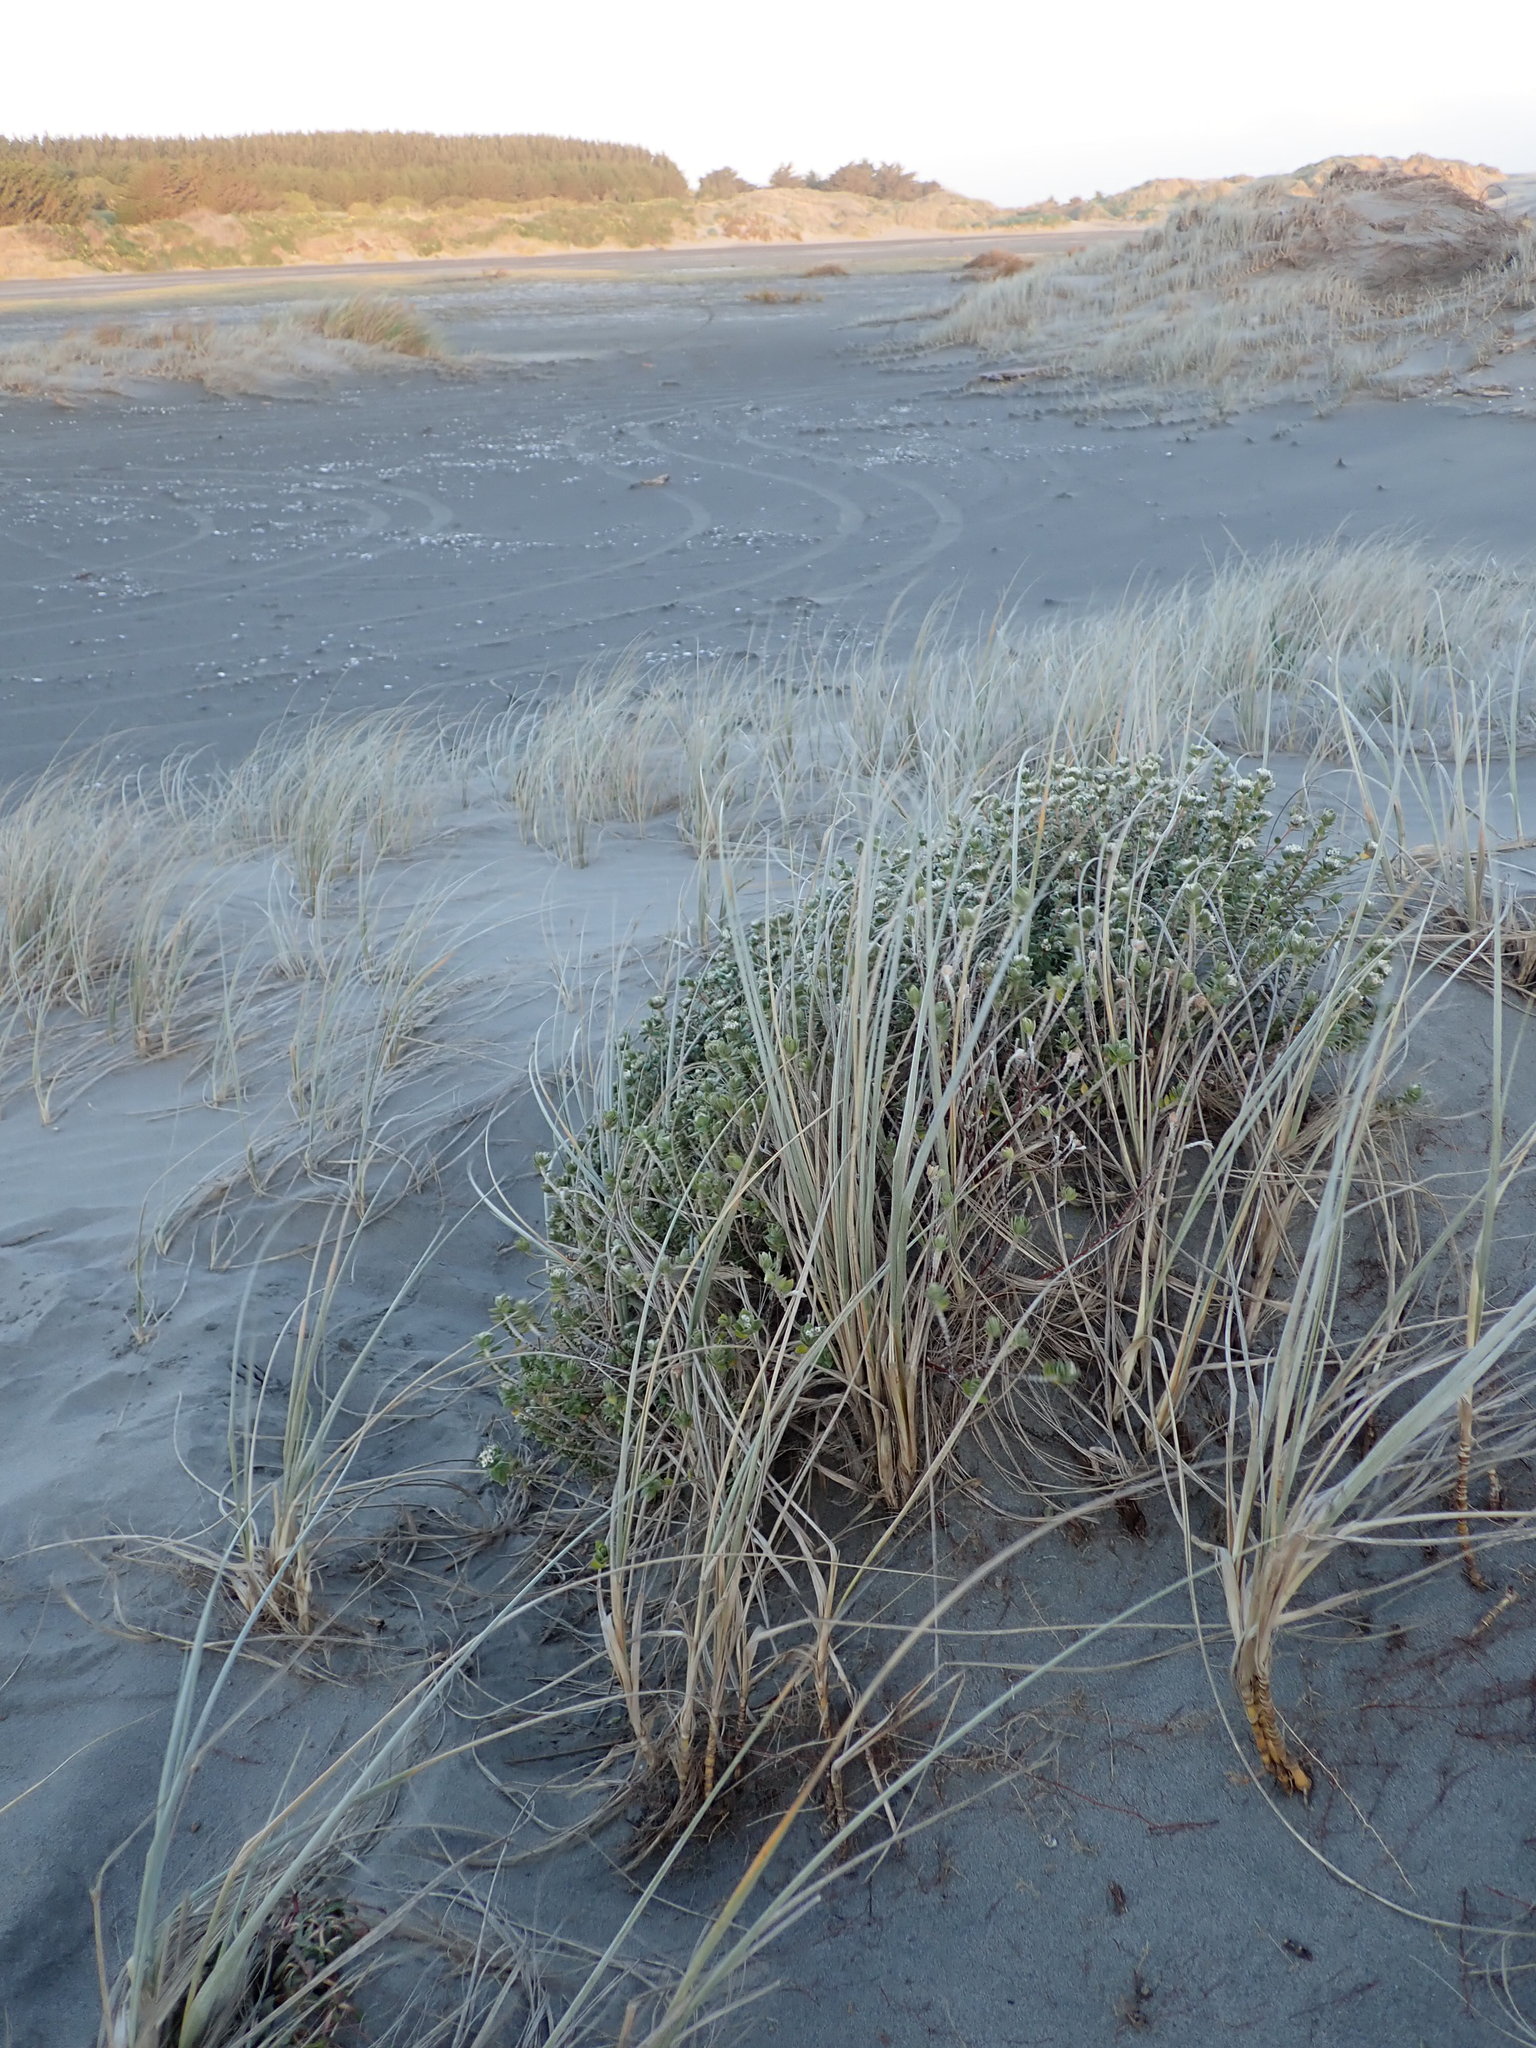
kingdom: Plantae
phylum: Tracheophyta
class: Magnoliopsida
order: Malvales
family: Thymelaeaceae
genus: Pimelea
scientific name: Pimelea villosa
